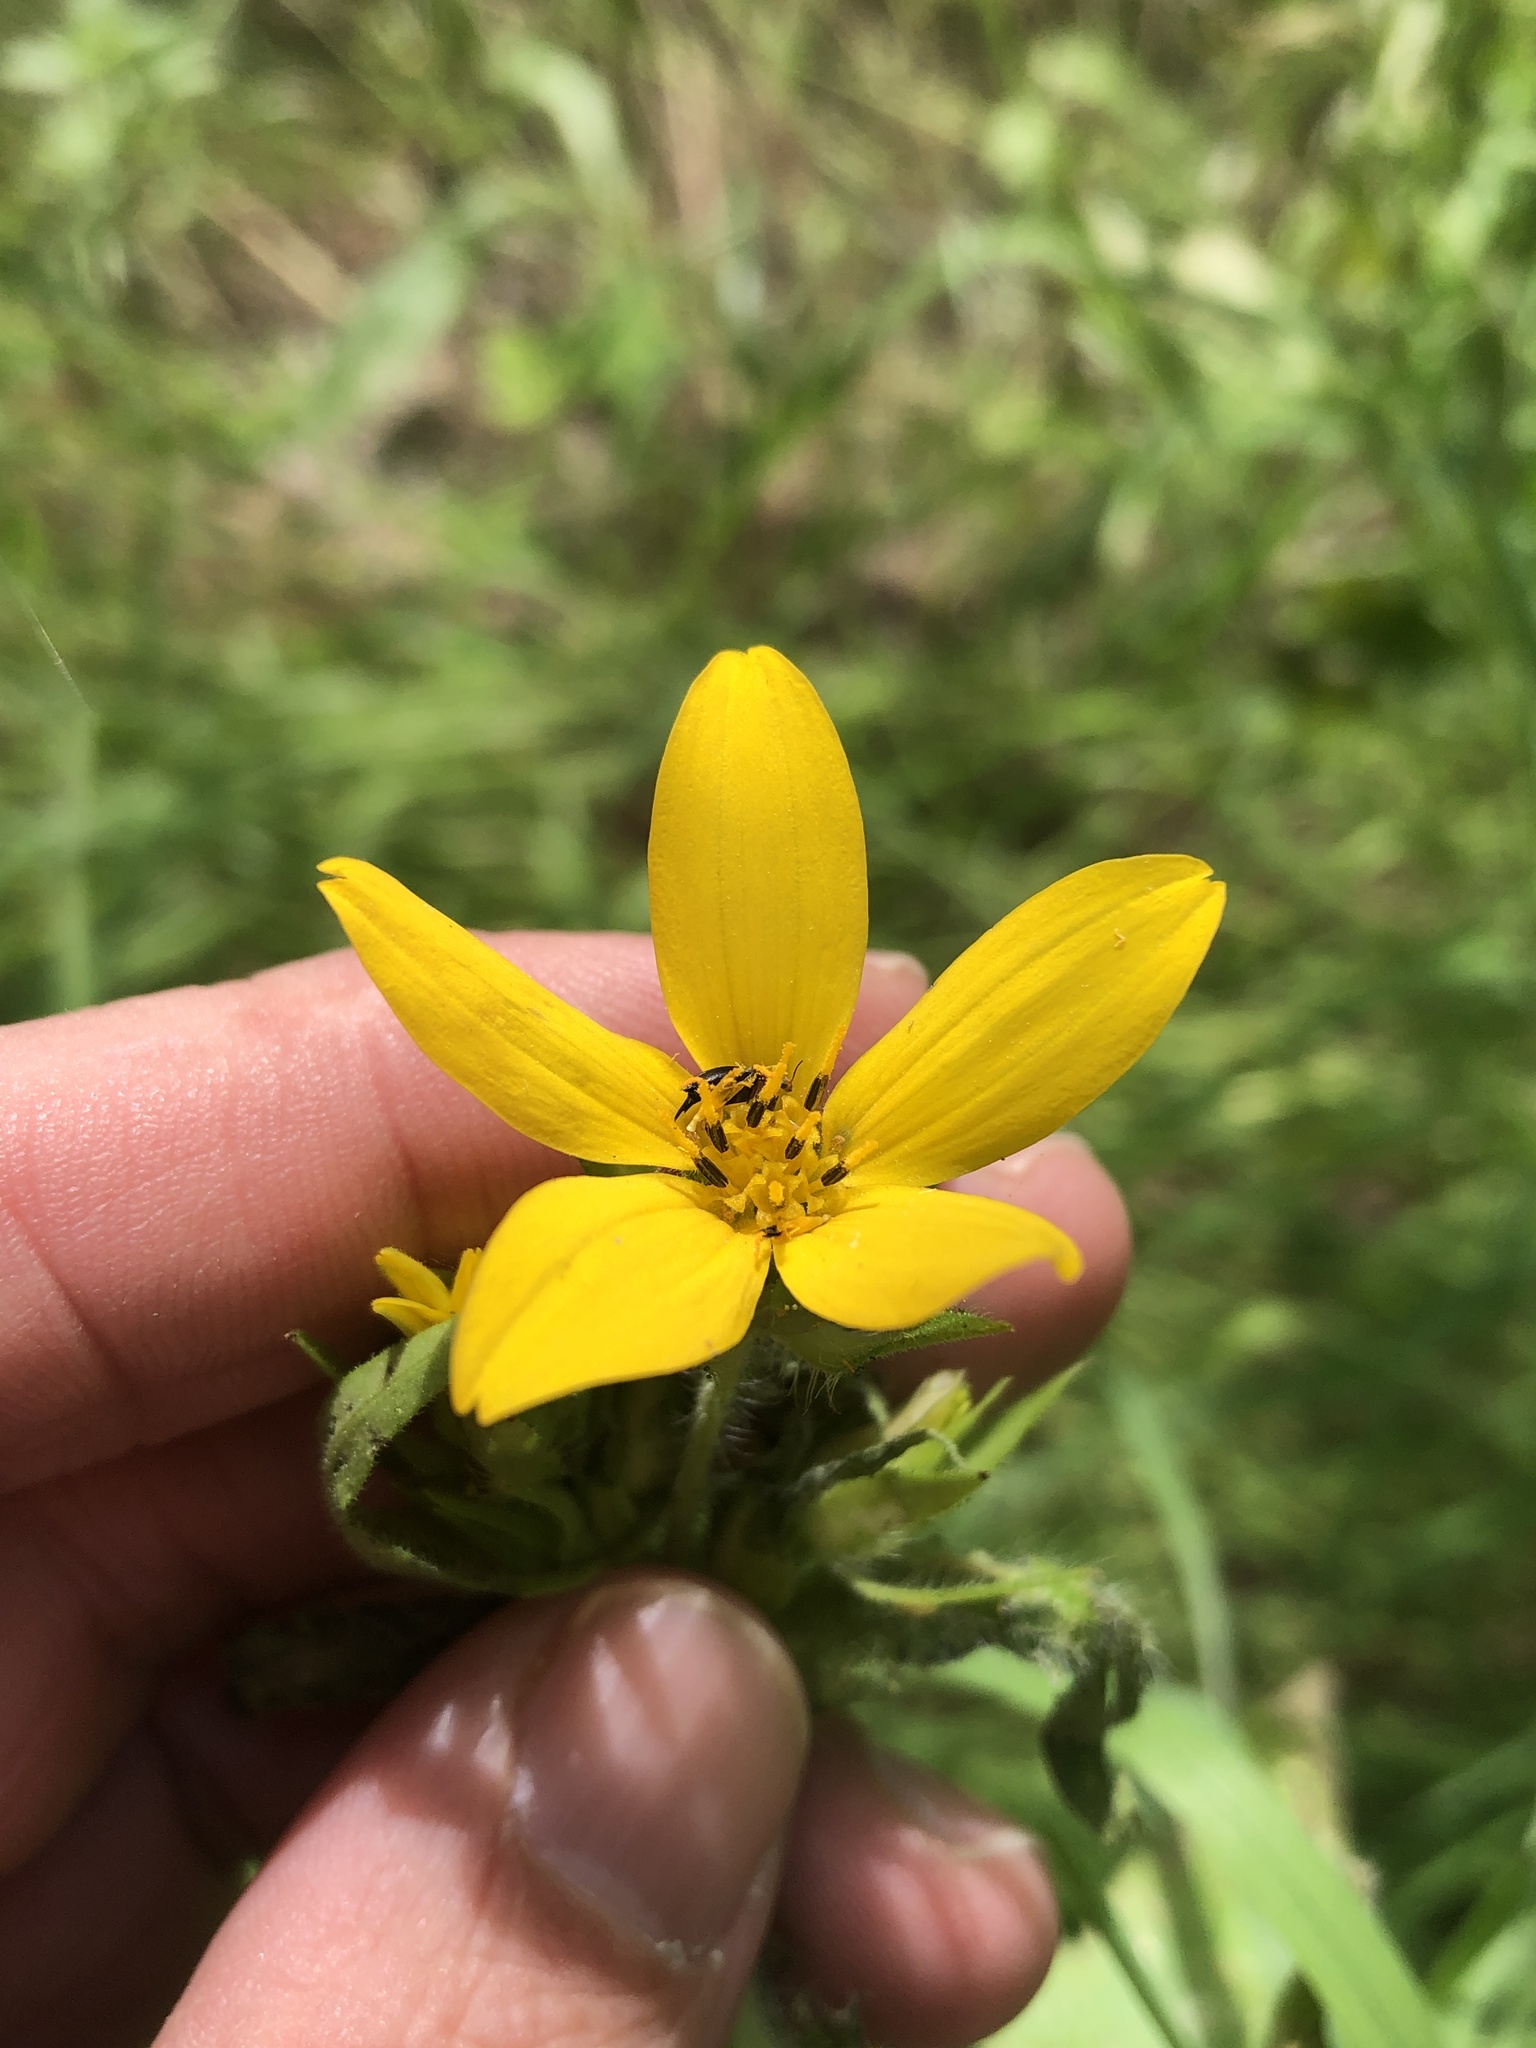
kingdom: Plantae
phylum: Tracheophyta
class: Magnoliopsida
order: Asterales
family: Asteraceae
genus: Lindheimera
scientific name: Lindheimera texana
